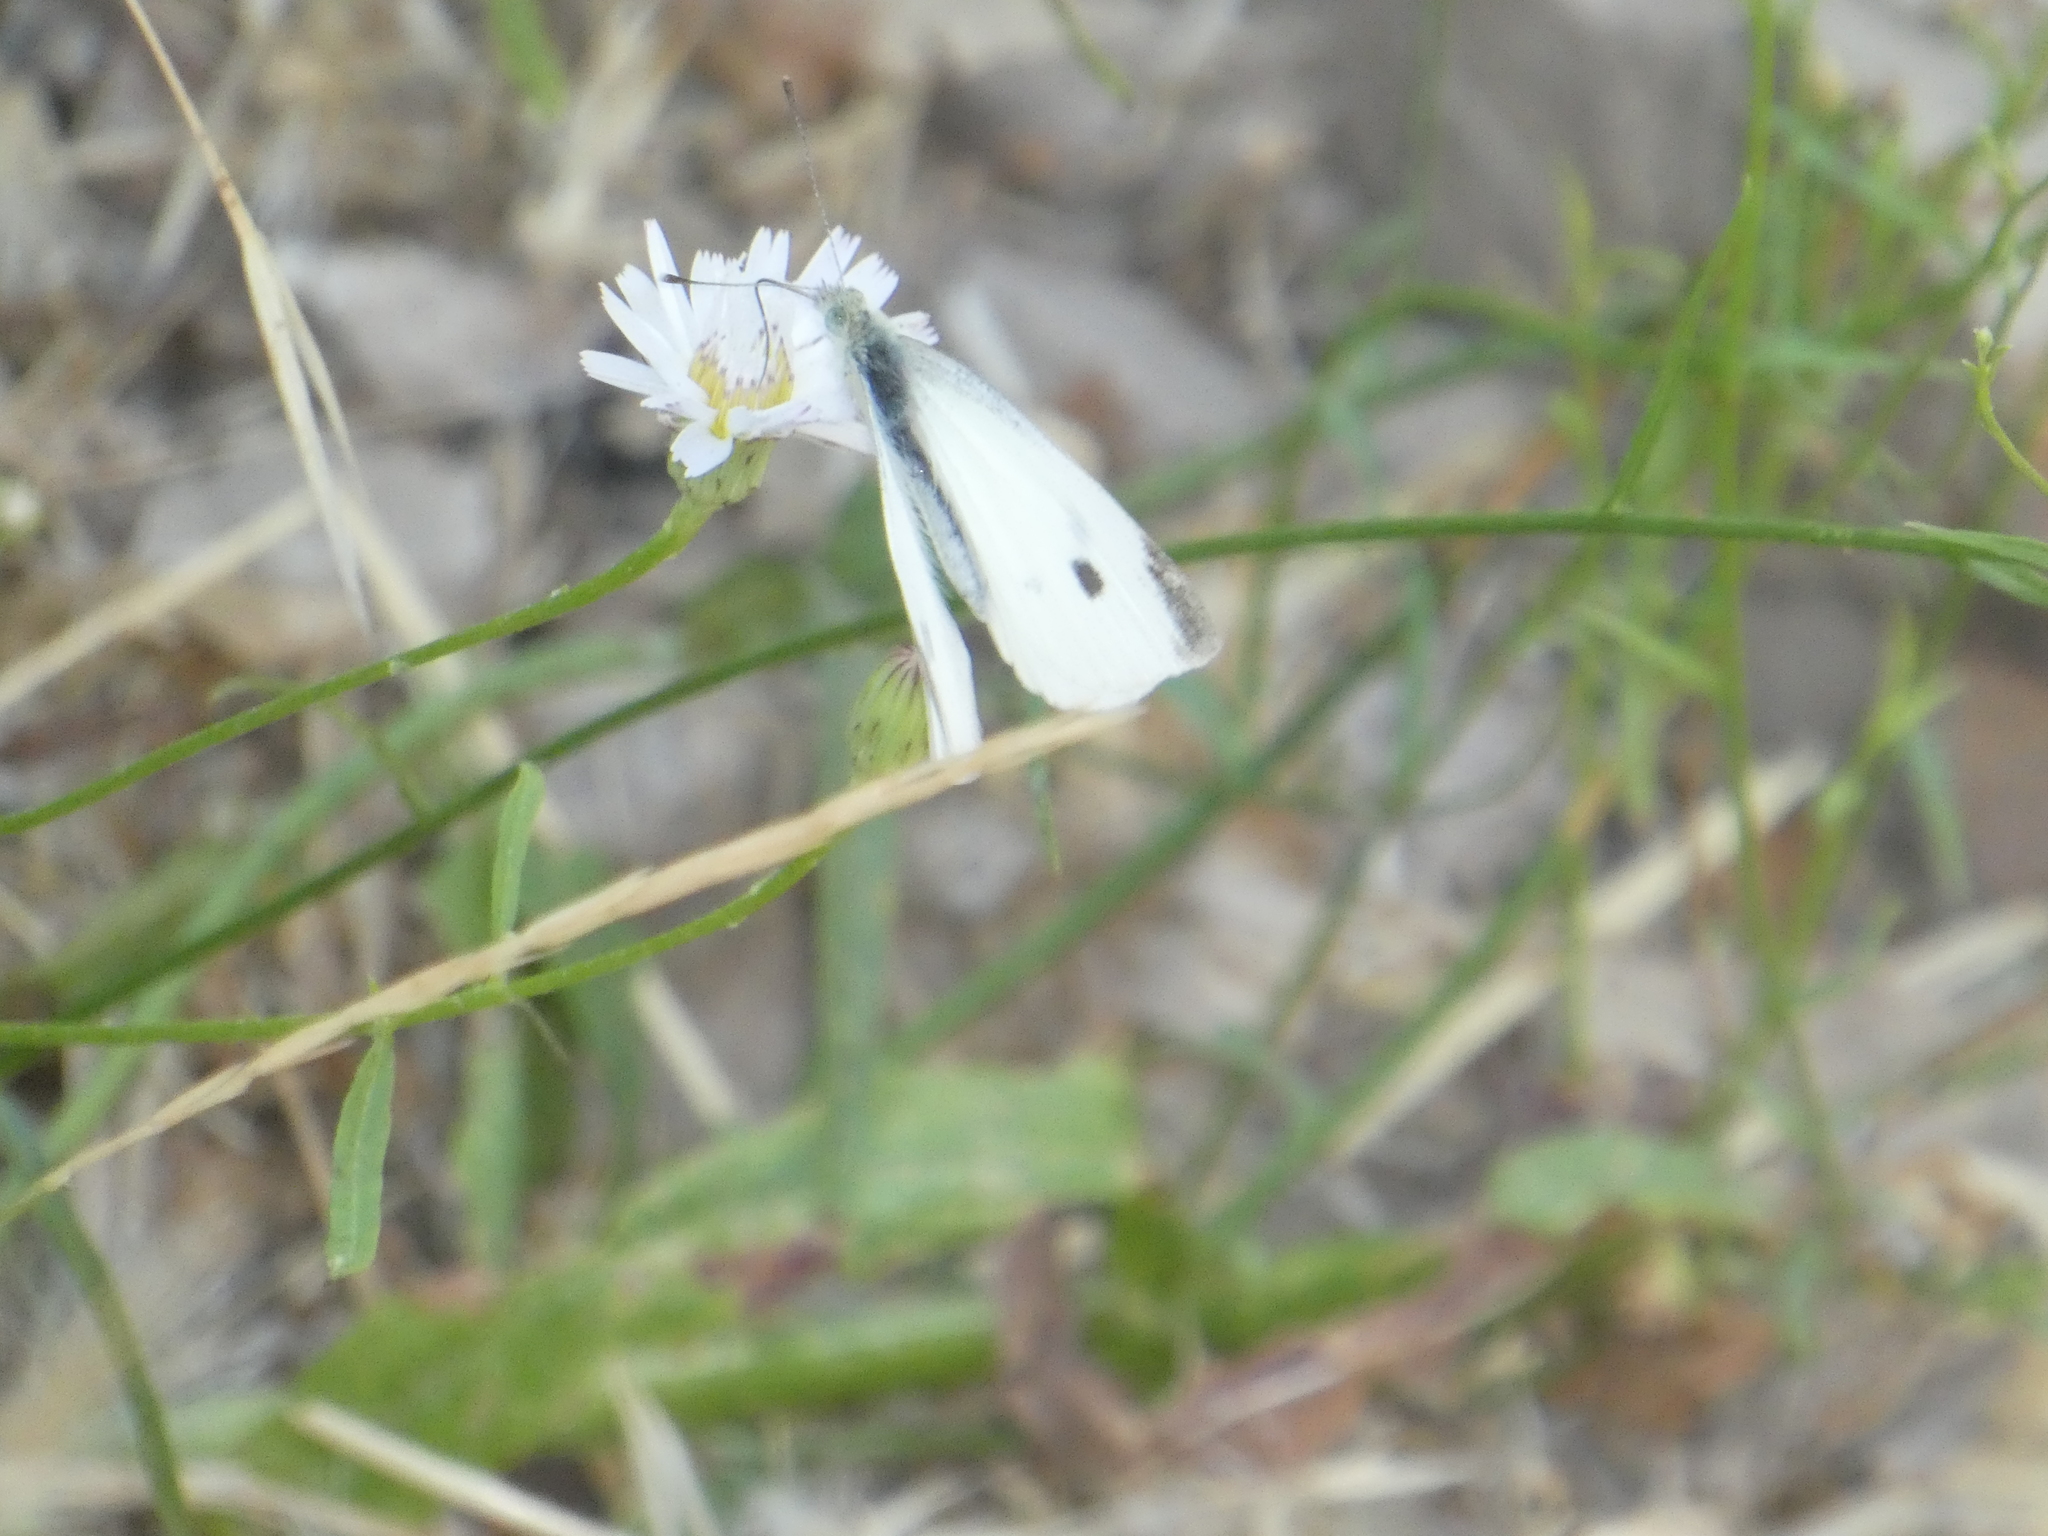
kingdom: Animalia
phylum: Arthropoda
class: Insecta
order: Lepidoptera
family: Pieridae
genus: Pieris
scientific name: Pieris rapae
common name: Small white
